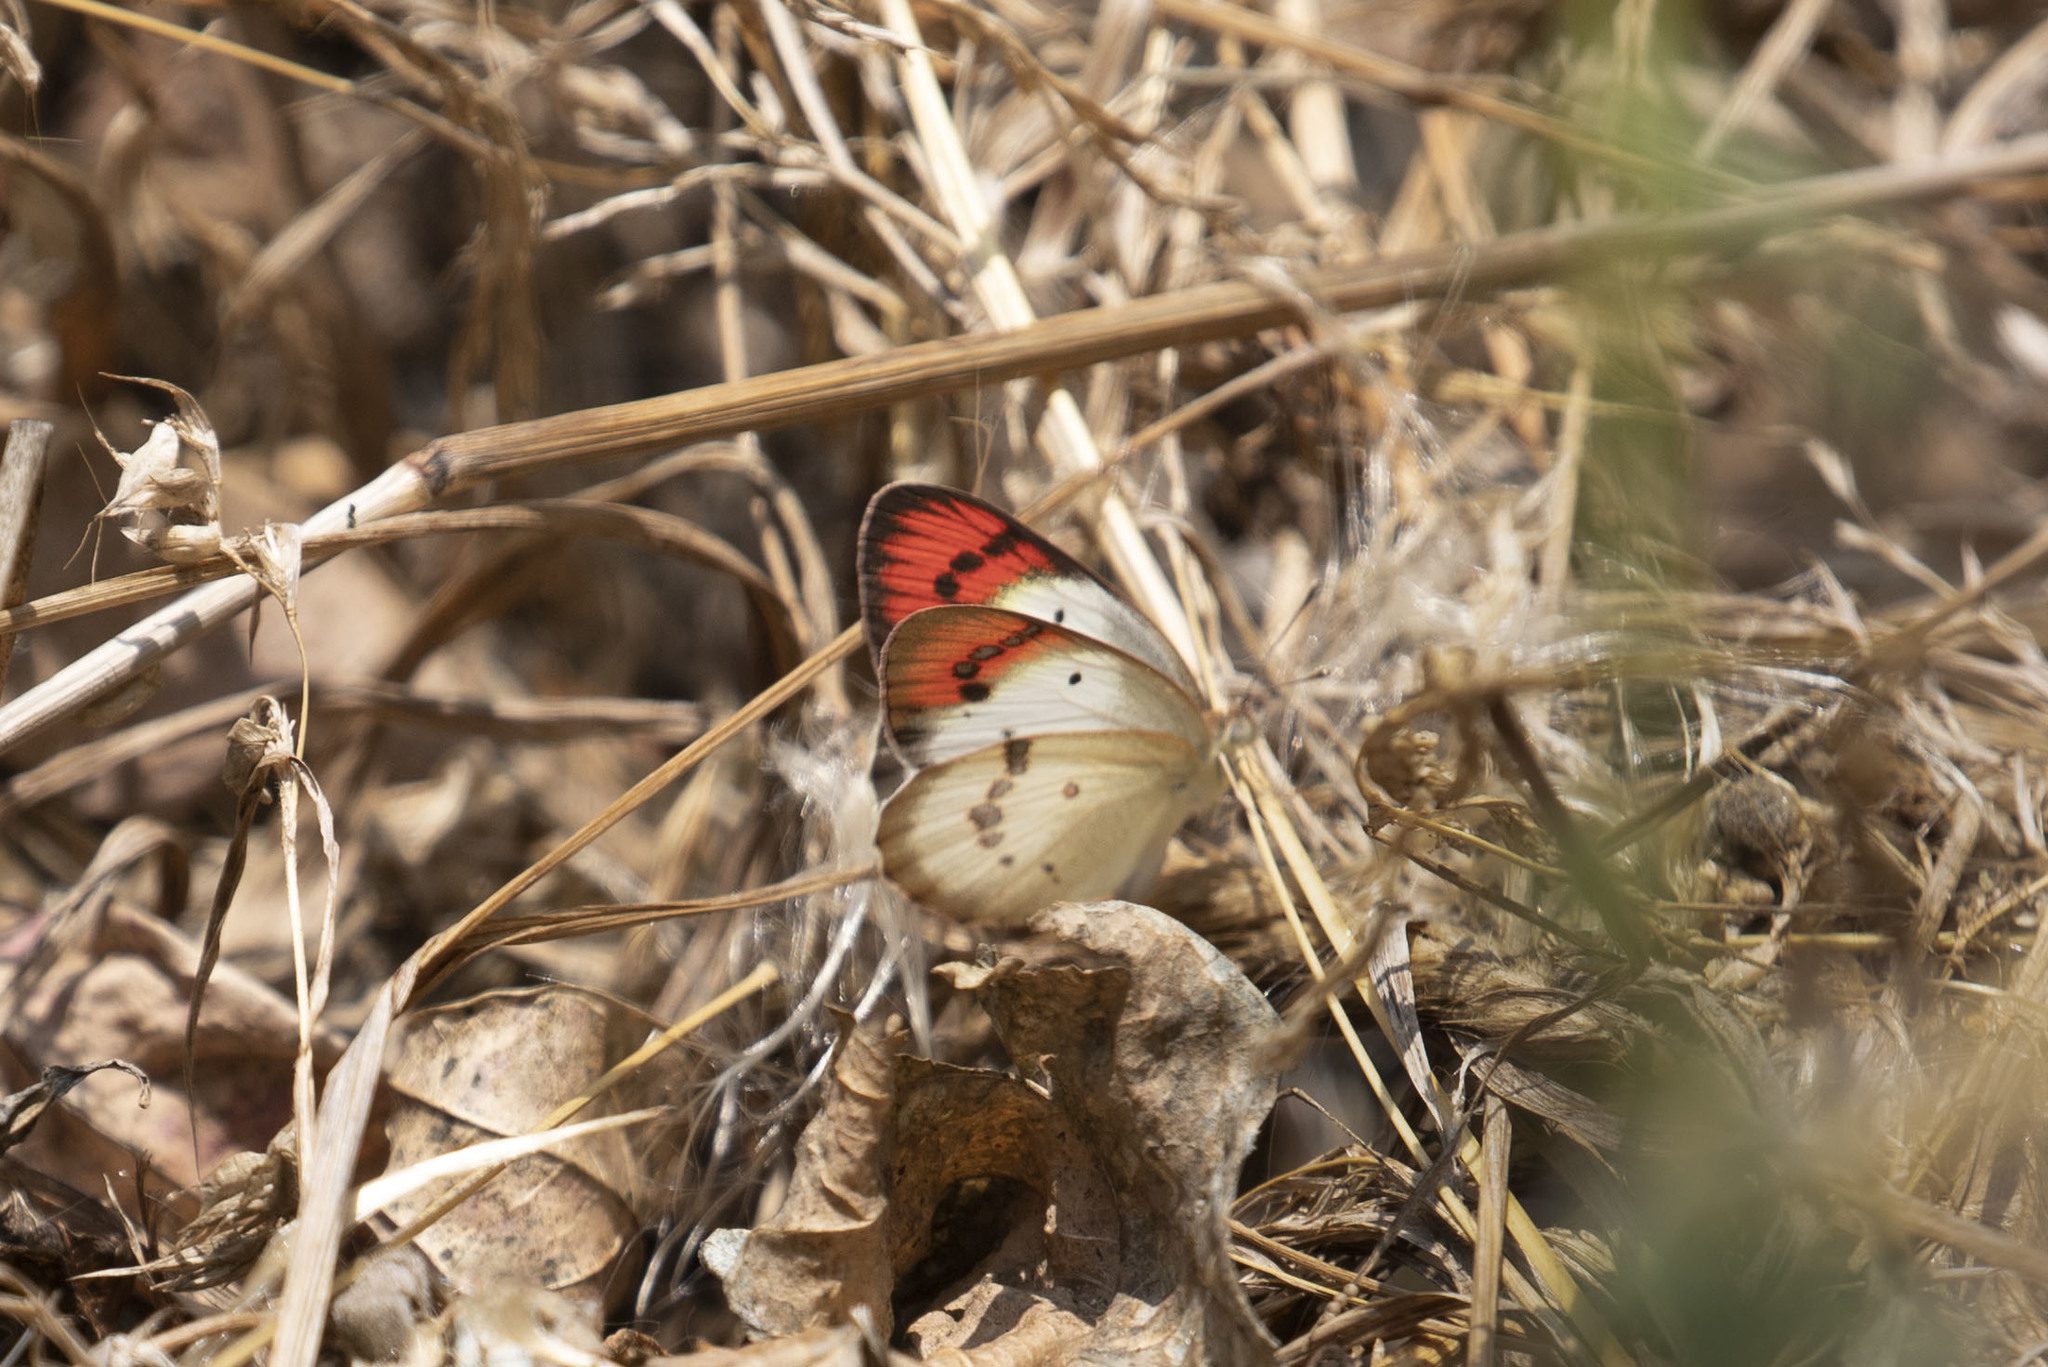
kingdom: Animalia
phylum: Arthropoda
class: Insecta
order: Lepidoptera
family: Pieridae
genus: Colotis
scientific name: Colotis danae
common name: Crimson tip
